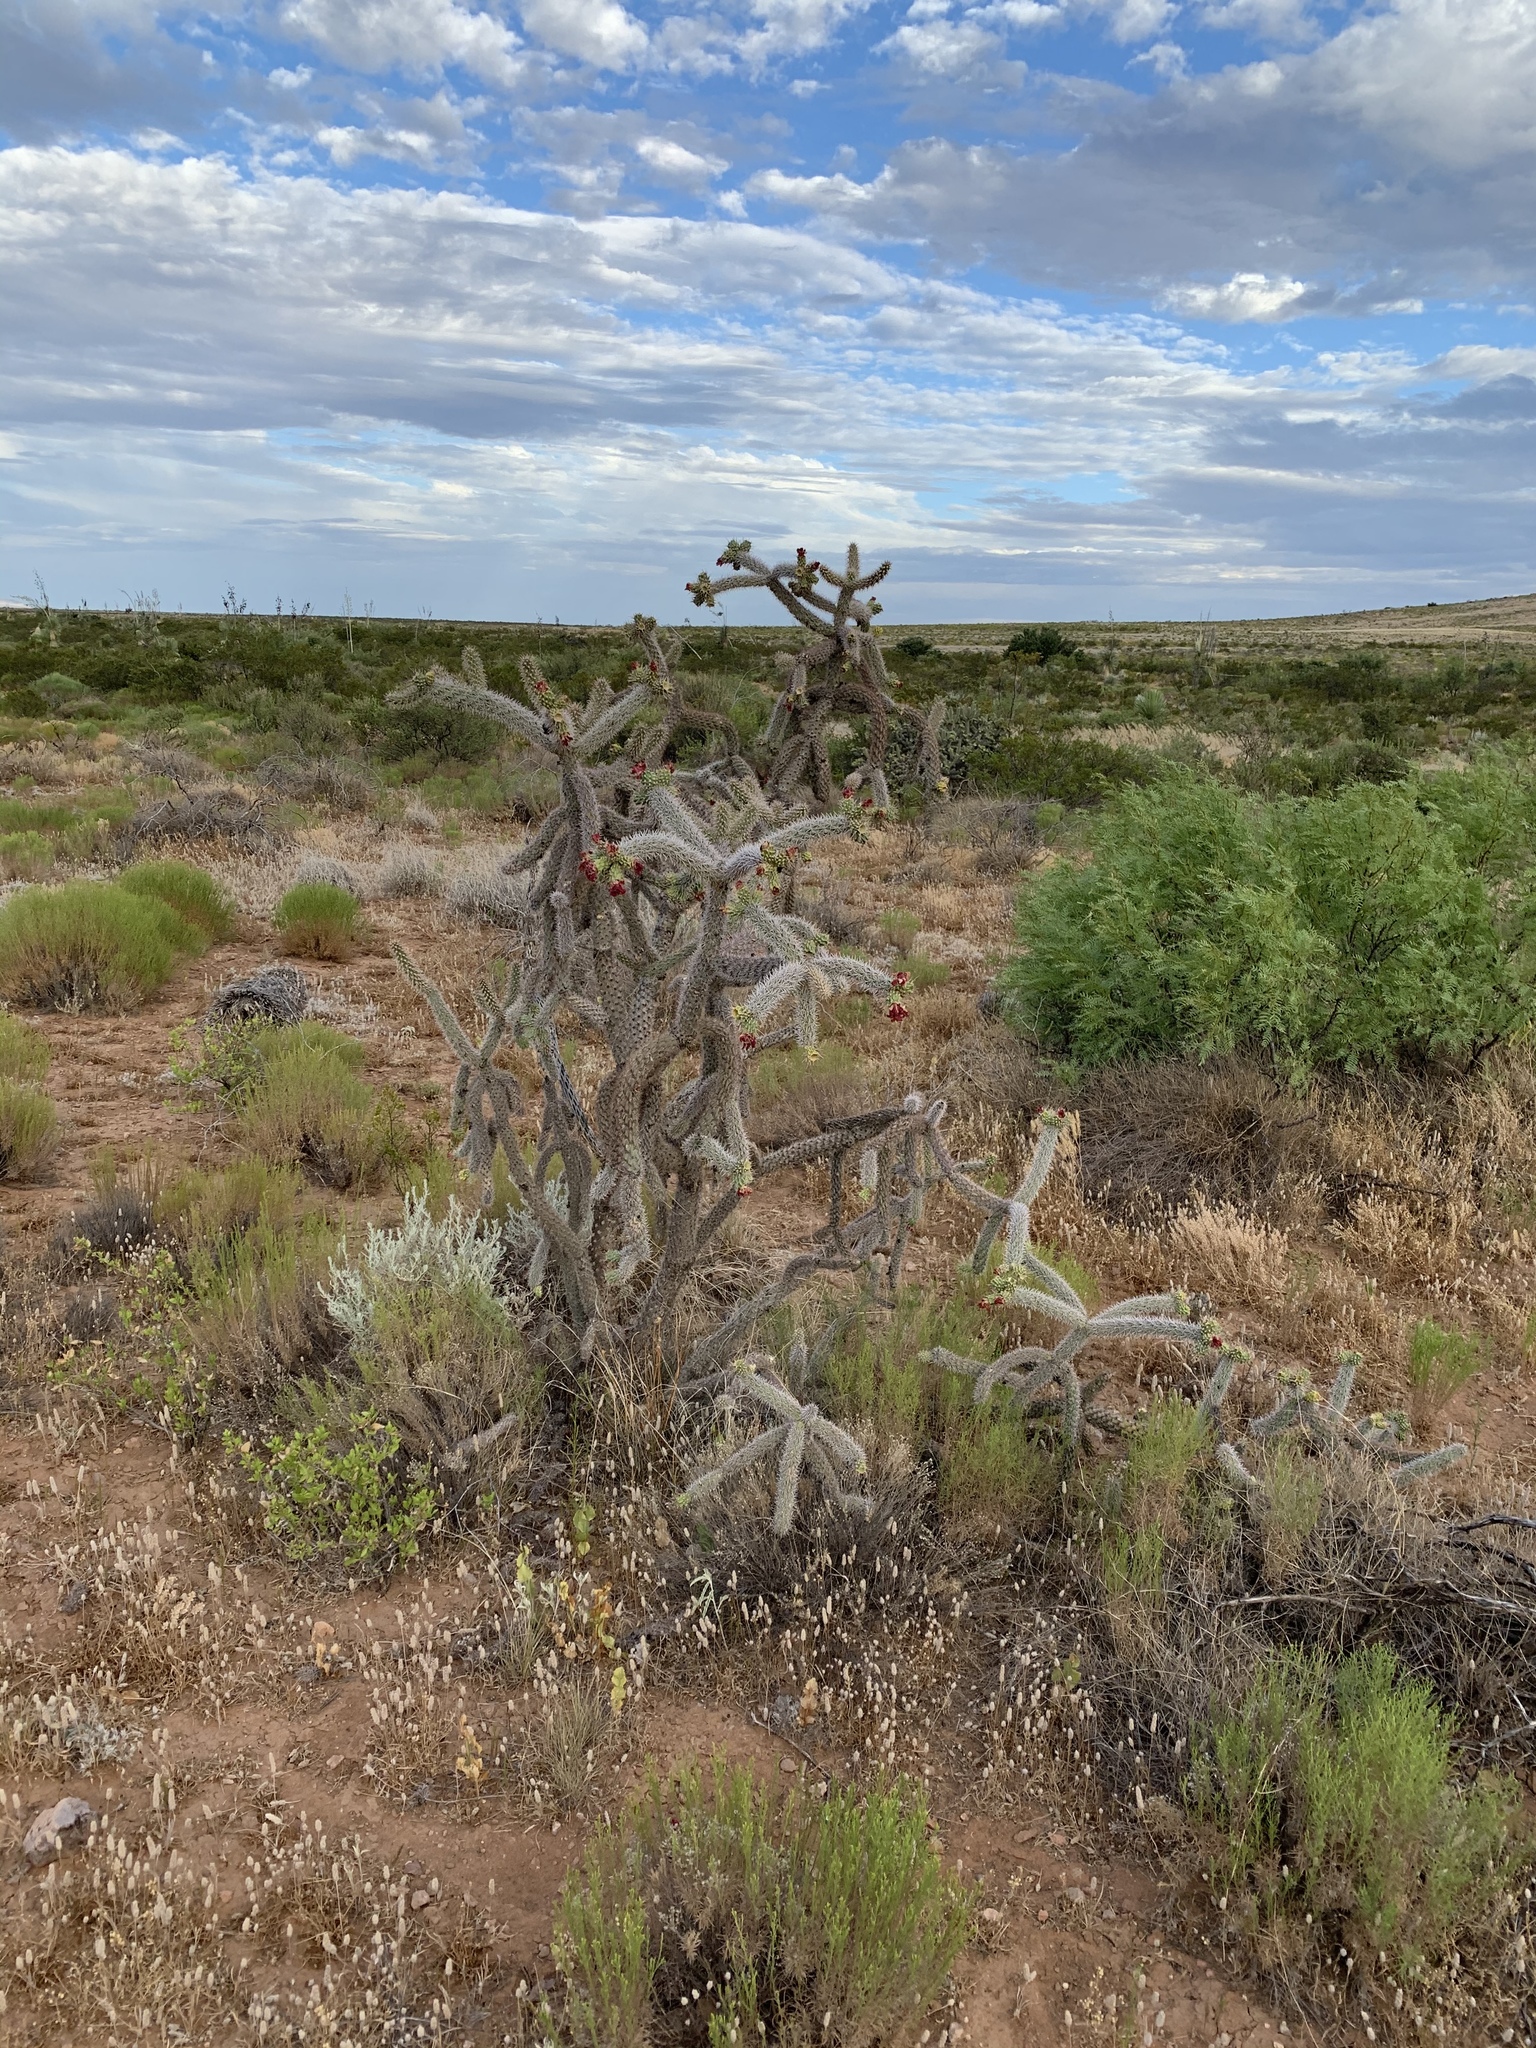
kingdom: Plantae
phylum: Tracheophyta
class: Magnoliopsida
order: Caryophyllales
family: Cactaceae
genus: Cylindropuntia
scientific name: Cylindropuntia imbricata
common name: Candelabrum cactus
